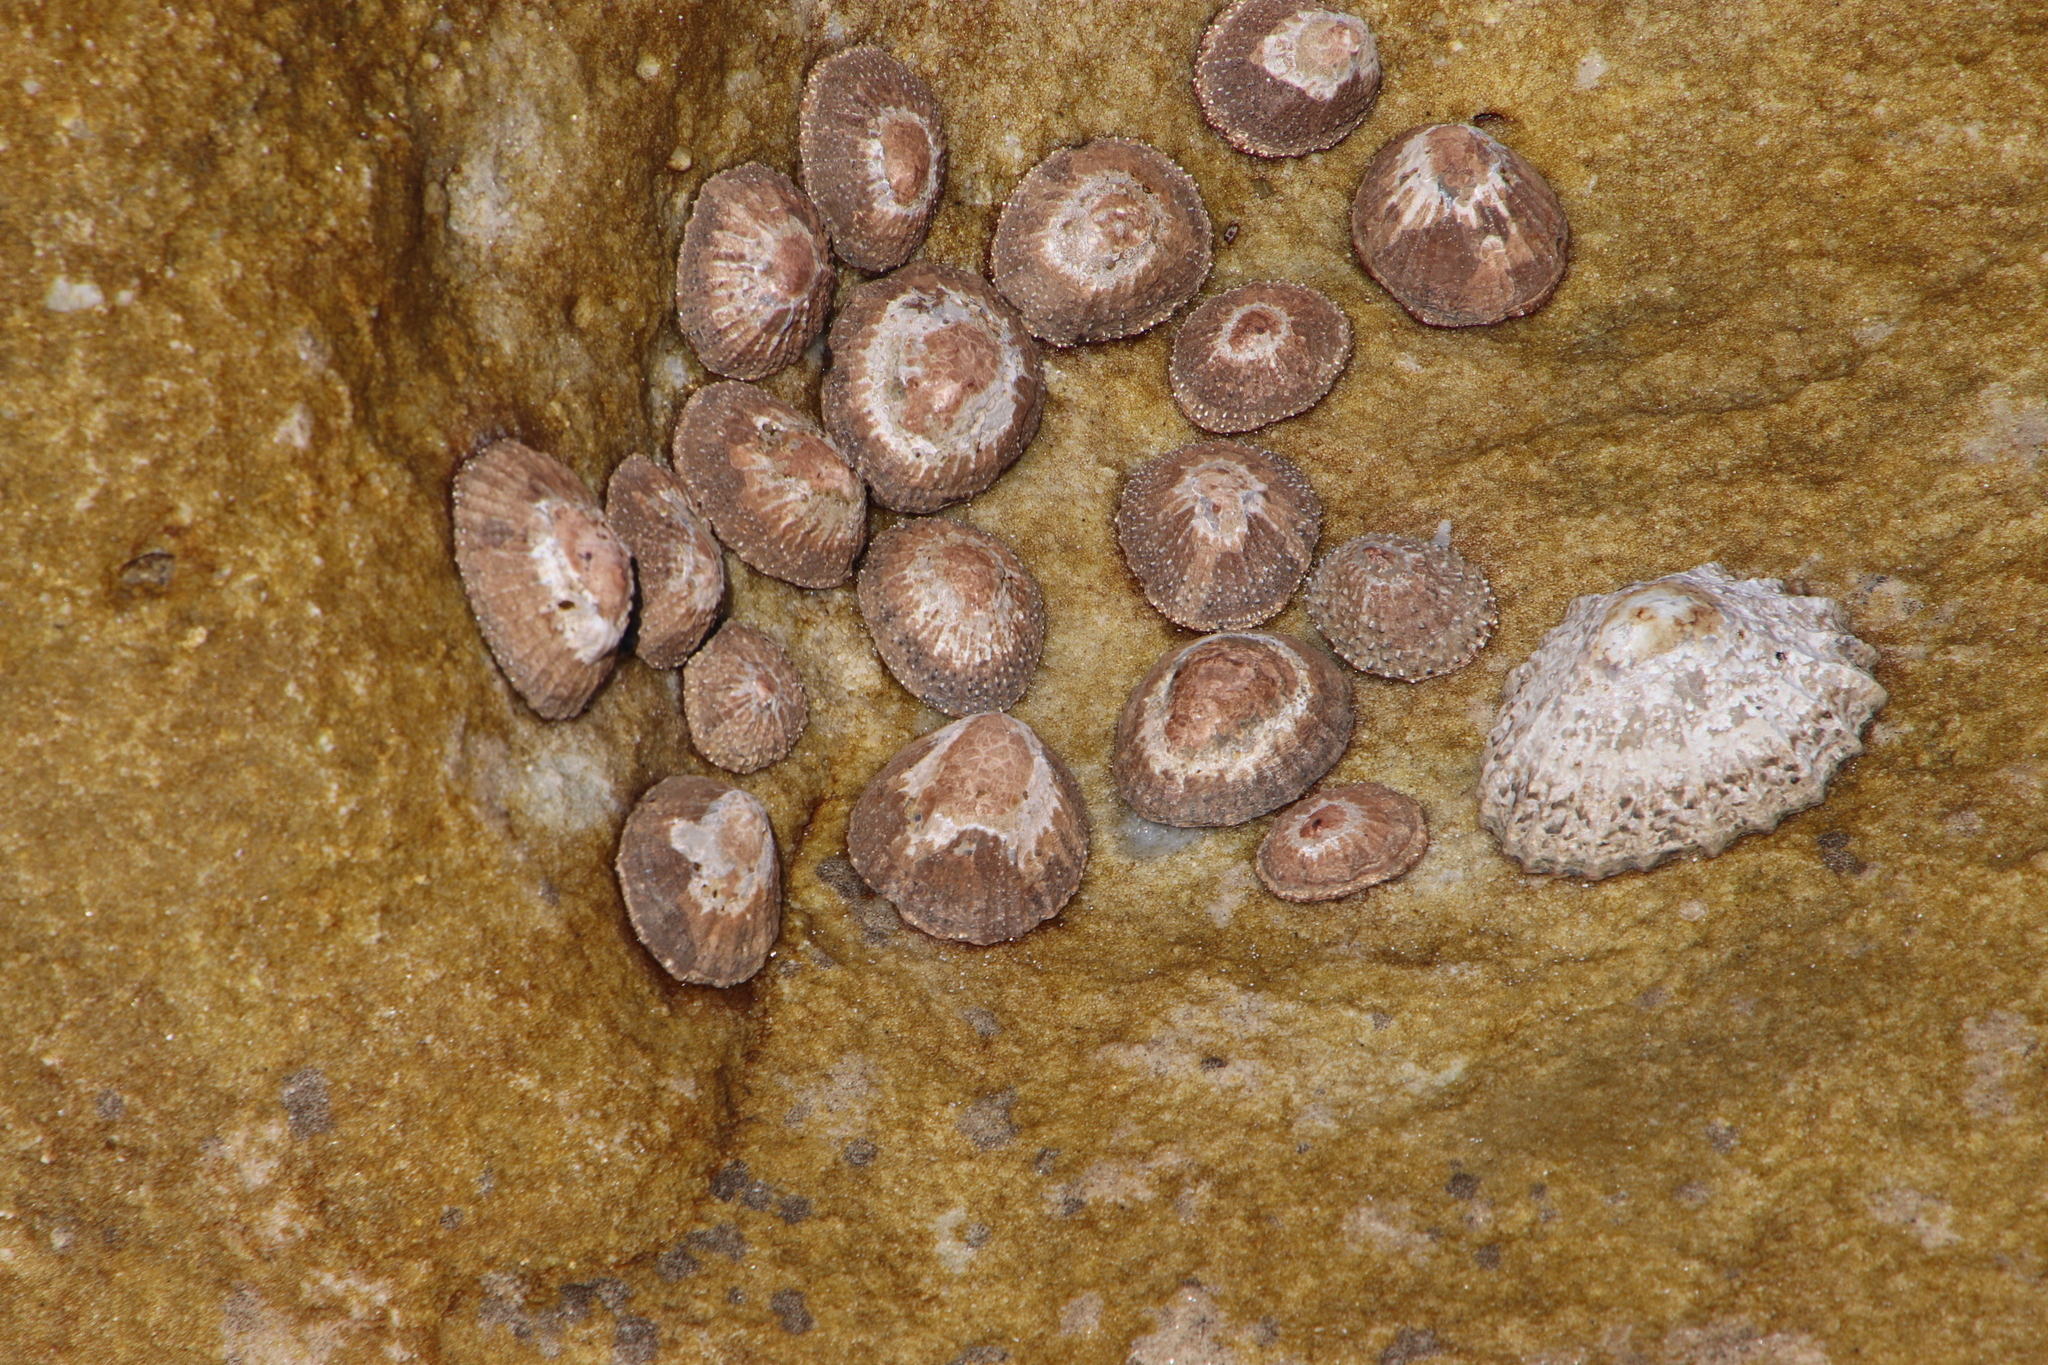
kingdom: Animalia
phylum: Mollusca
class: Gastropoda
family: Patellidae
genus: Scutellastra
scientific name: Scutellastra granularis
